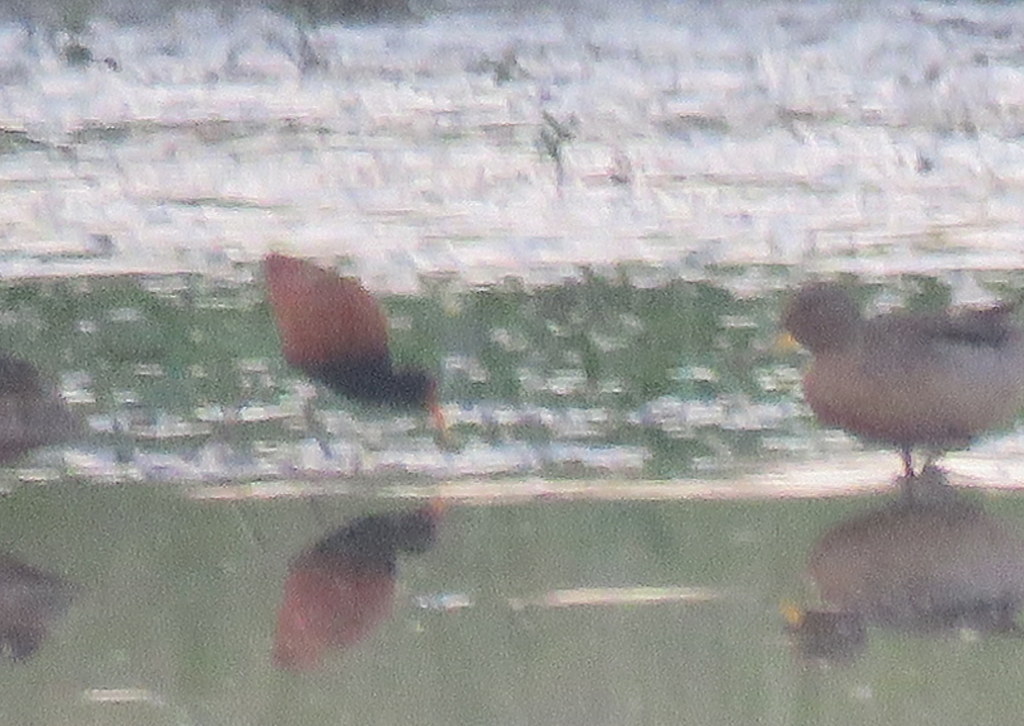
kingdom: Animalia
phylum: Chordata
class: Aves
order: Charadriiformes
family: Jacanidae
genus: Jacana
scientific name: Jacana jacana
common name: Wattled jacana
